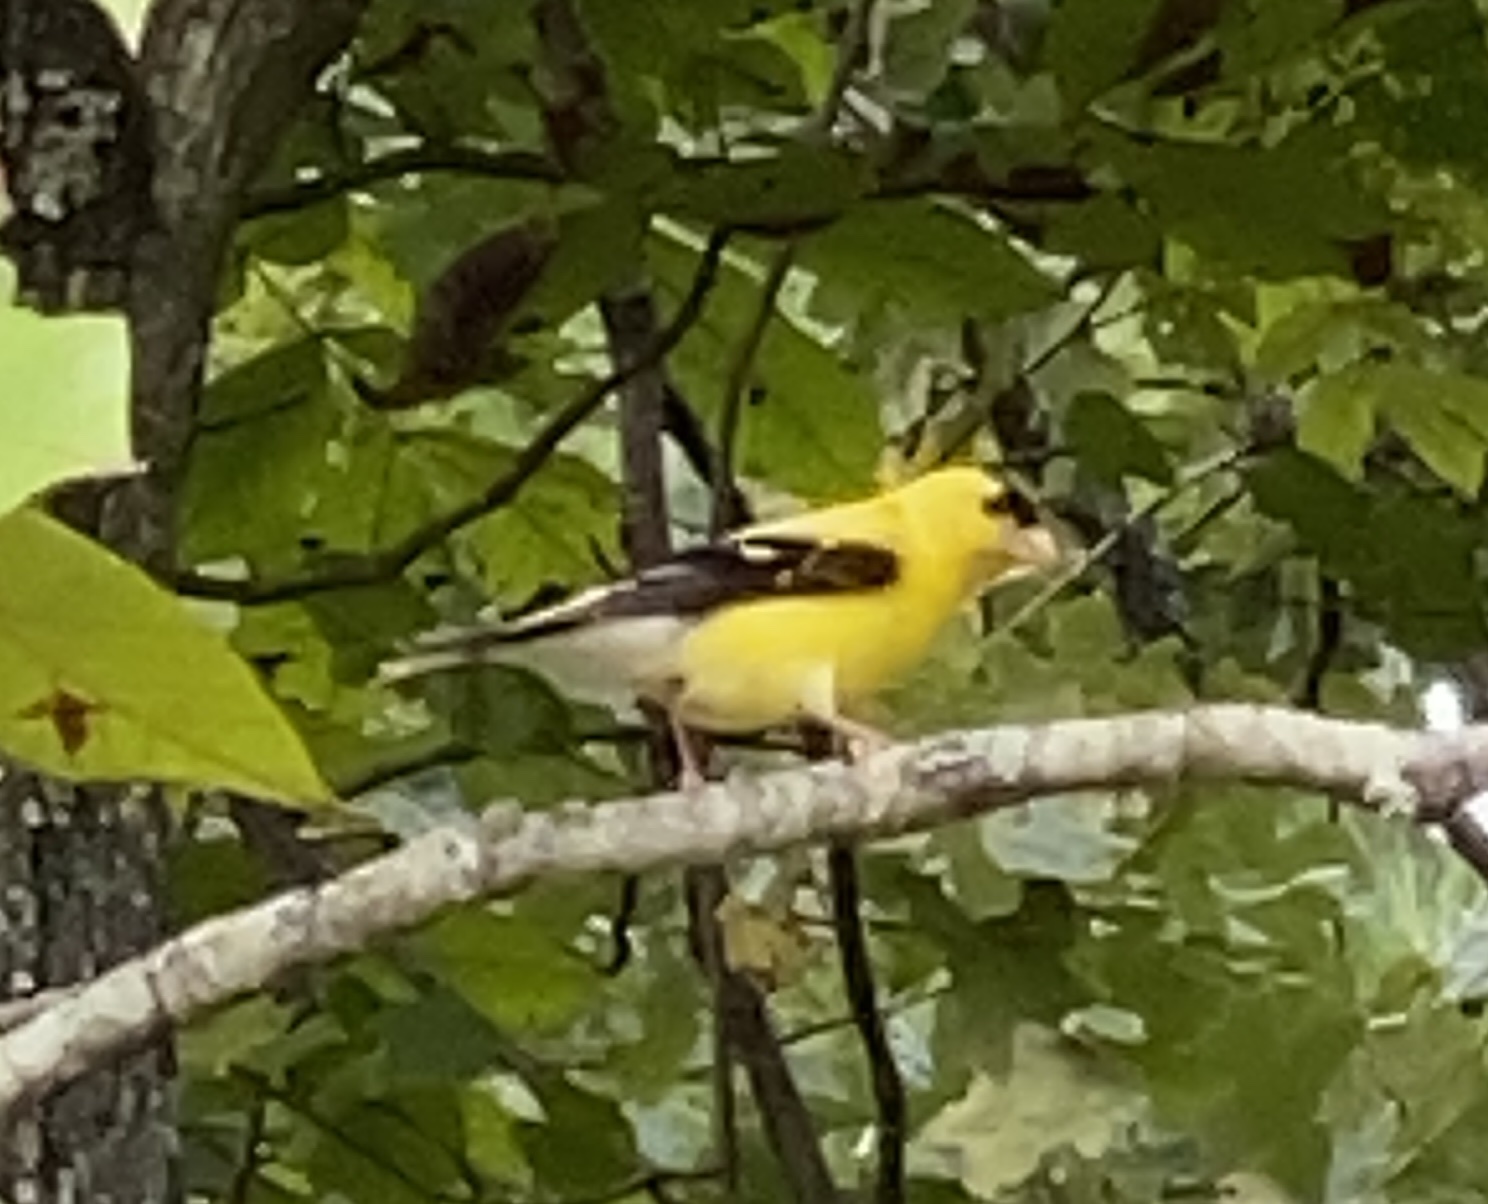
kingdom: Animalia
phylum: Chordata
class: Aves
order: Passeriformes
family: Fringillidae
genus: Spinus
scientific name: Spinus tristis
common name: American goldfinch
